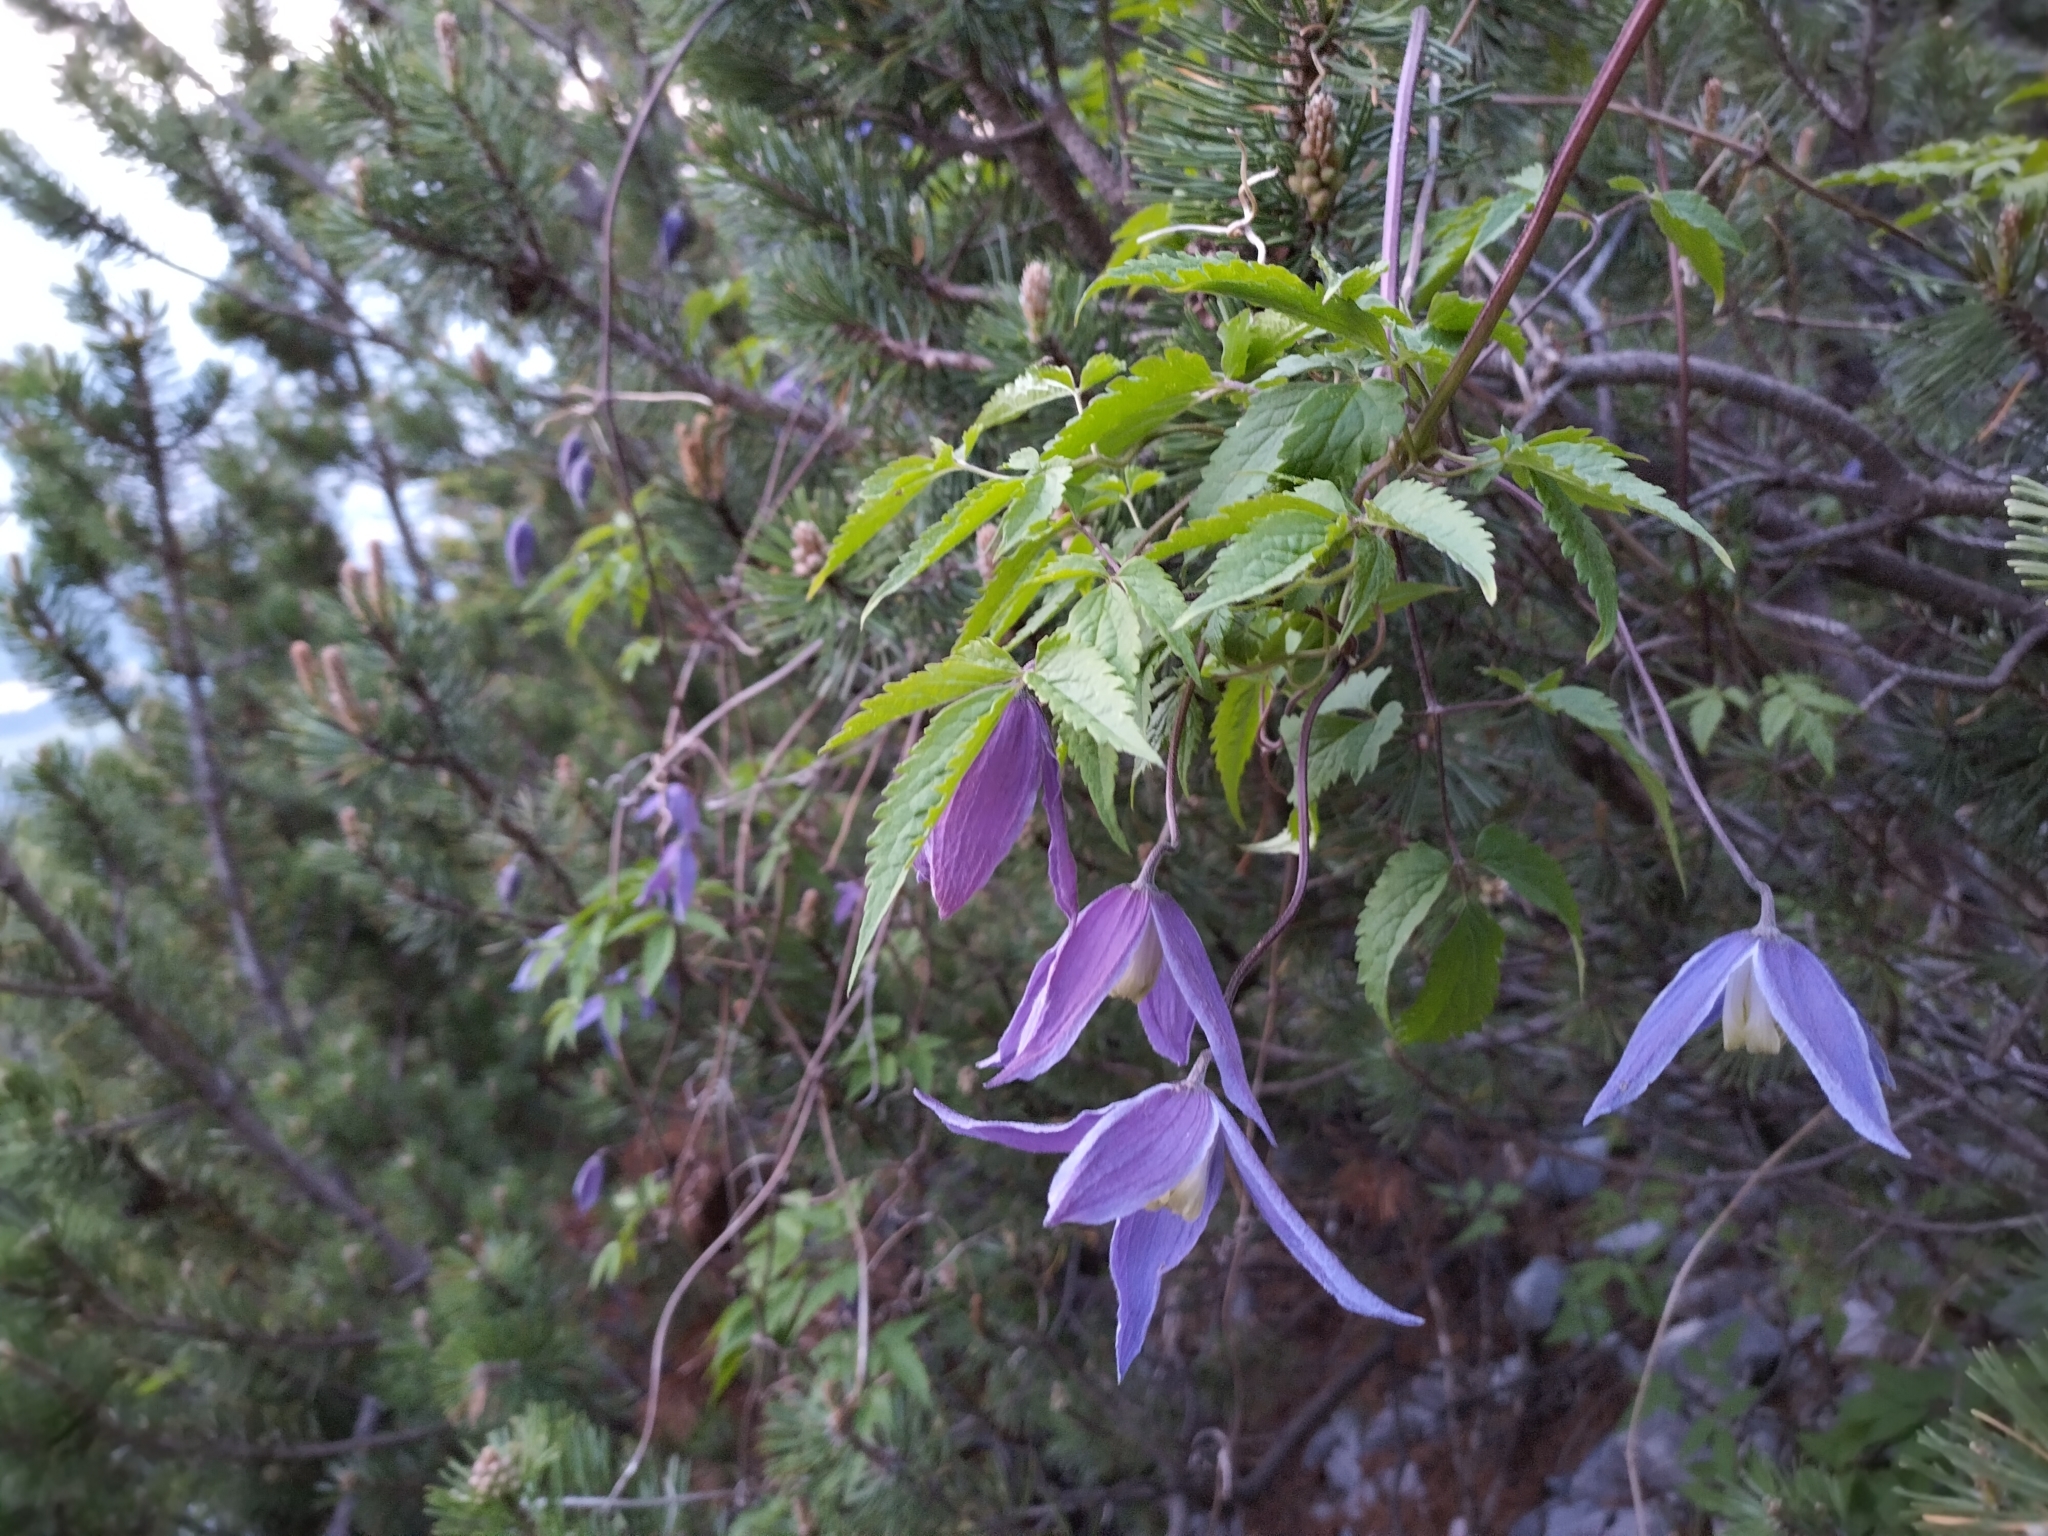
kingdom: Plantae
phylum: Tracheophyta
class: Magnoliopsida
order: Ranunculales
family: Ranunculaceae
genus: Clematis
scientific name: Clematis alpina
